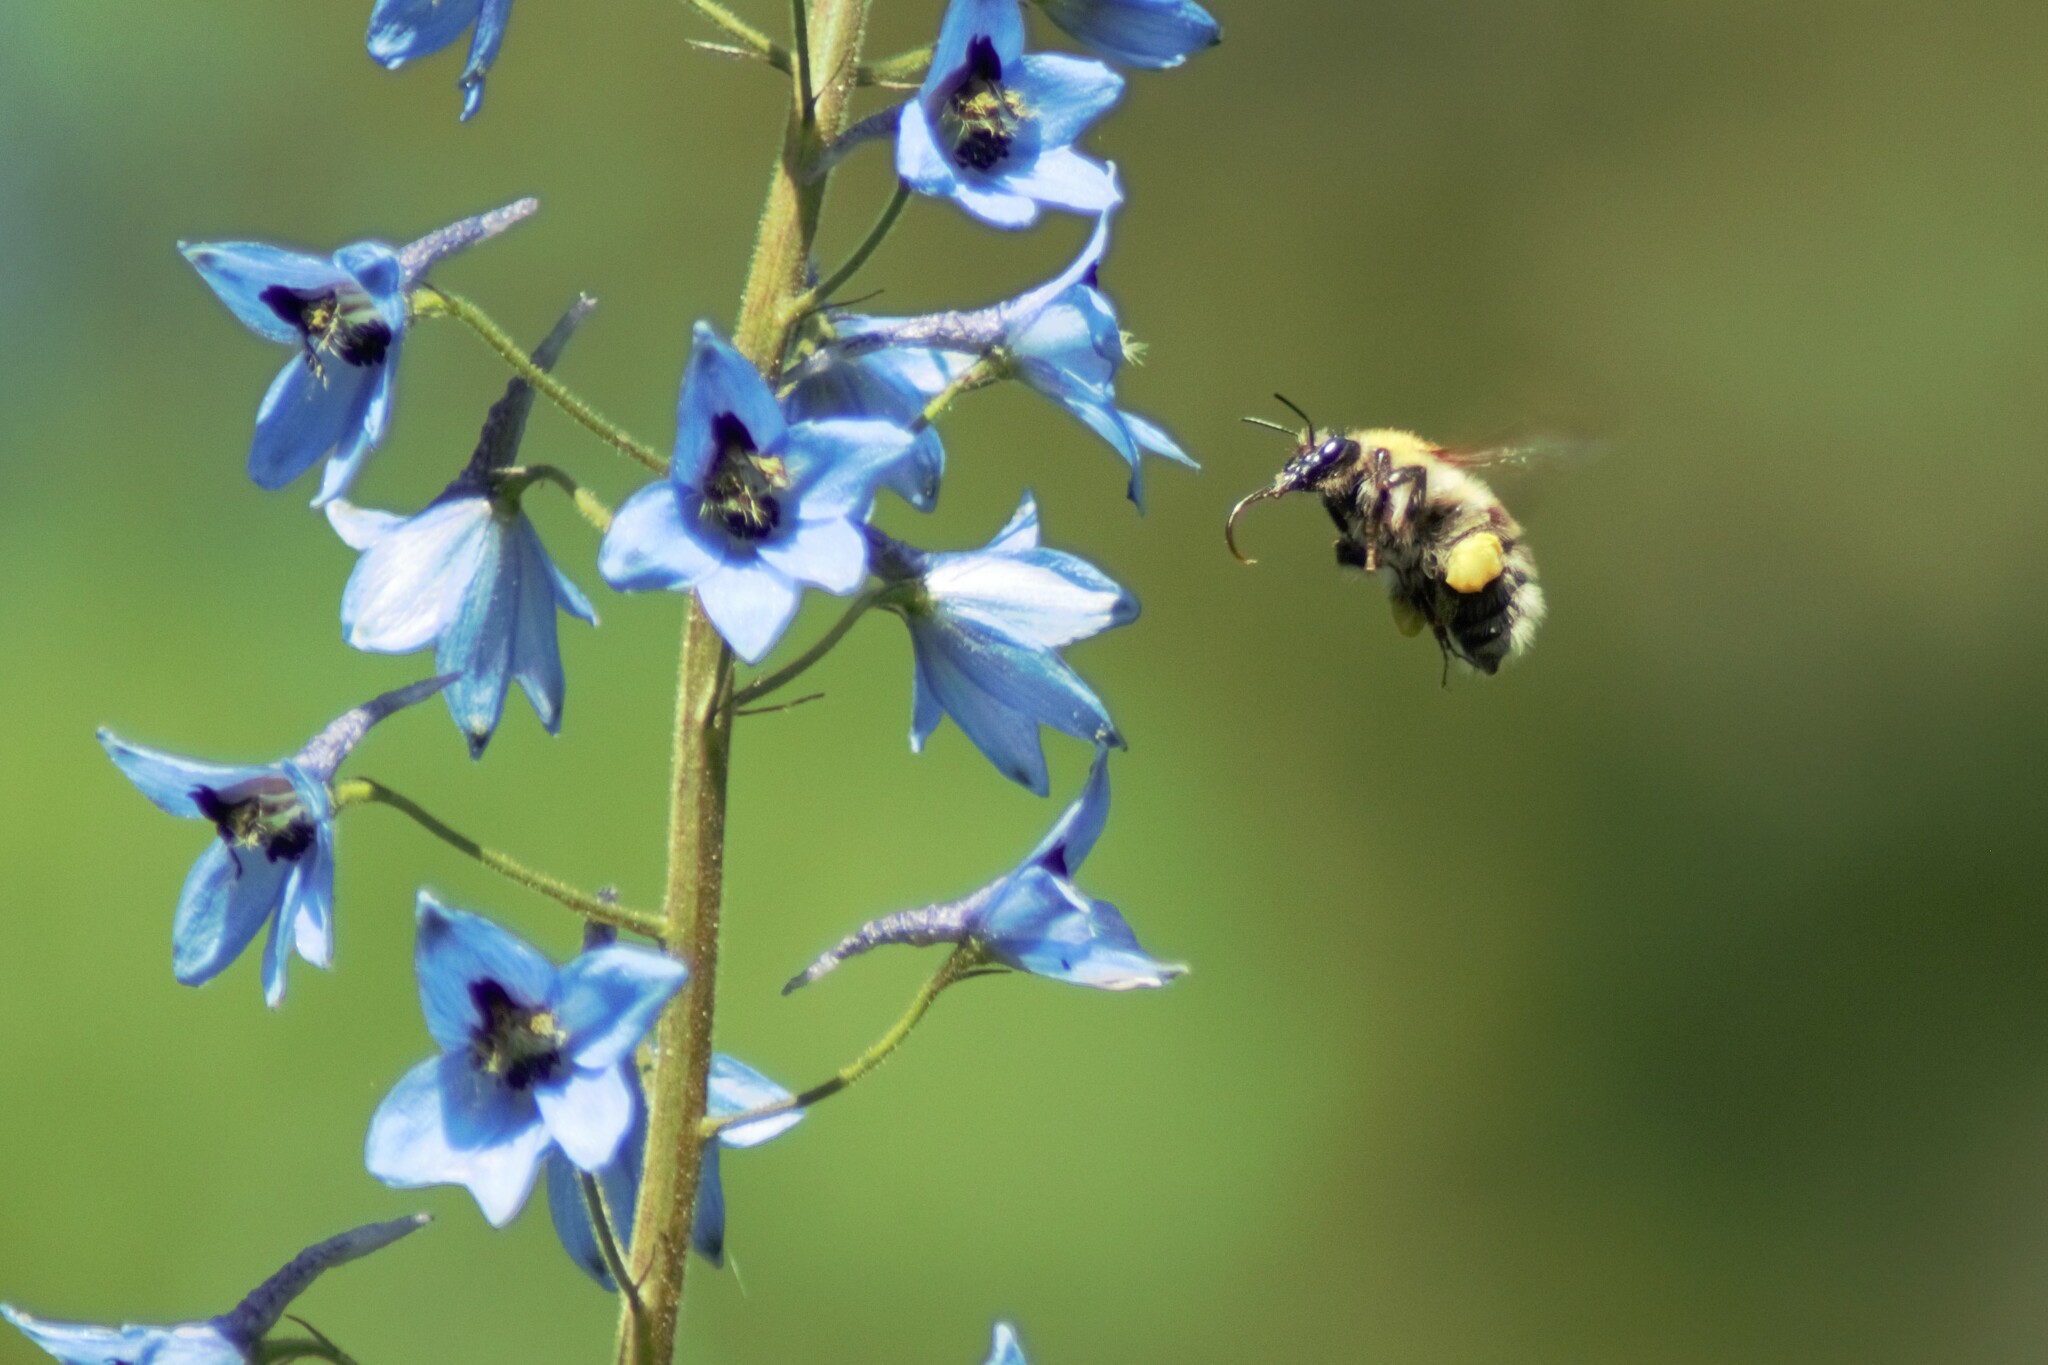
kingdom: Animalia
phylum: Arthropoda
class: Insecta
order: Hymenoptera
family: Apidae
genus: Bombus
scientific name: Bombus consobrinus
